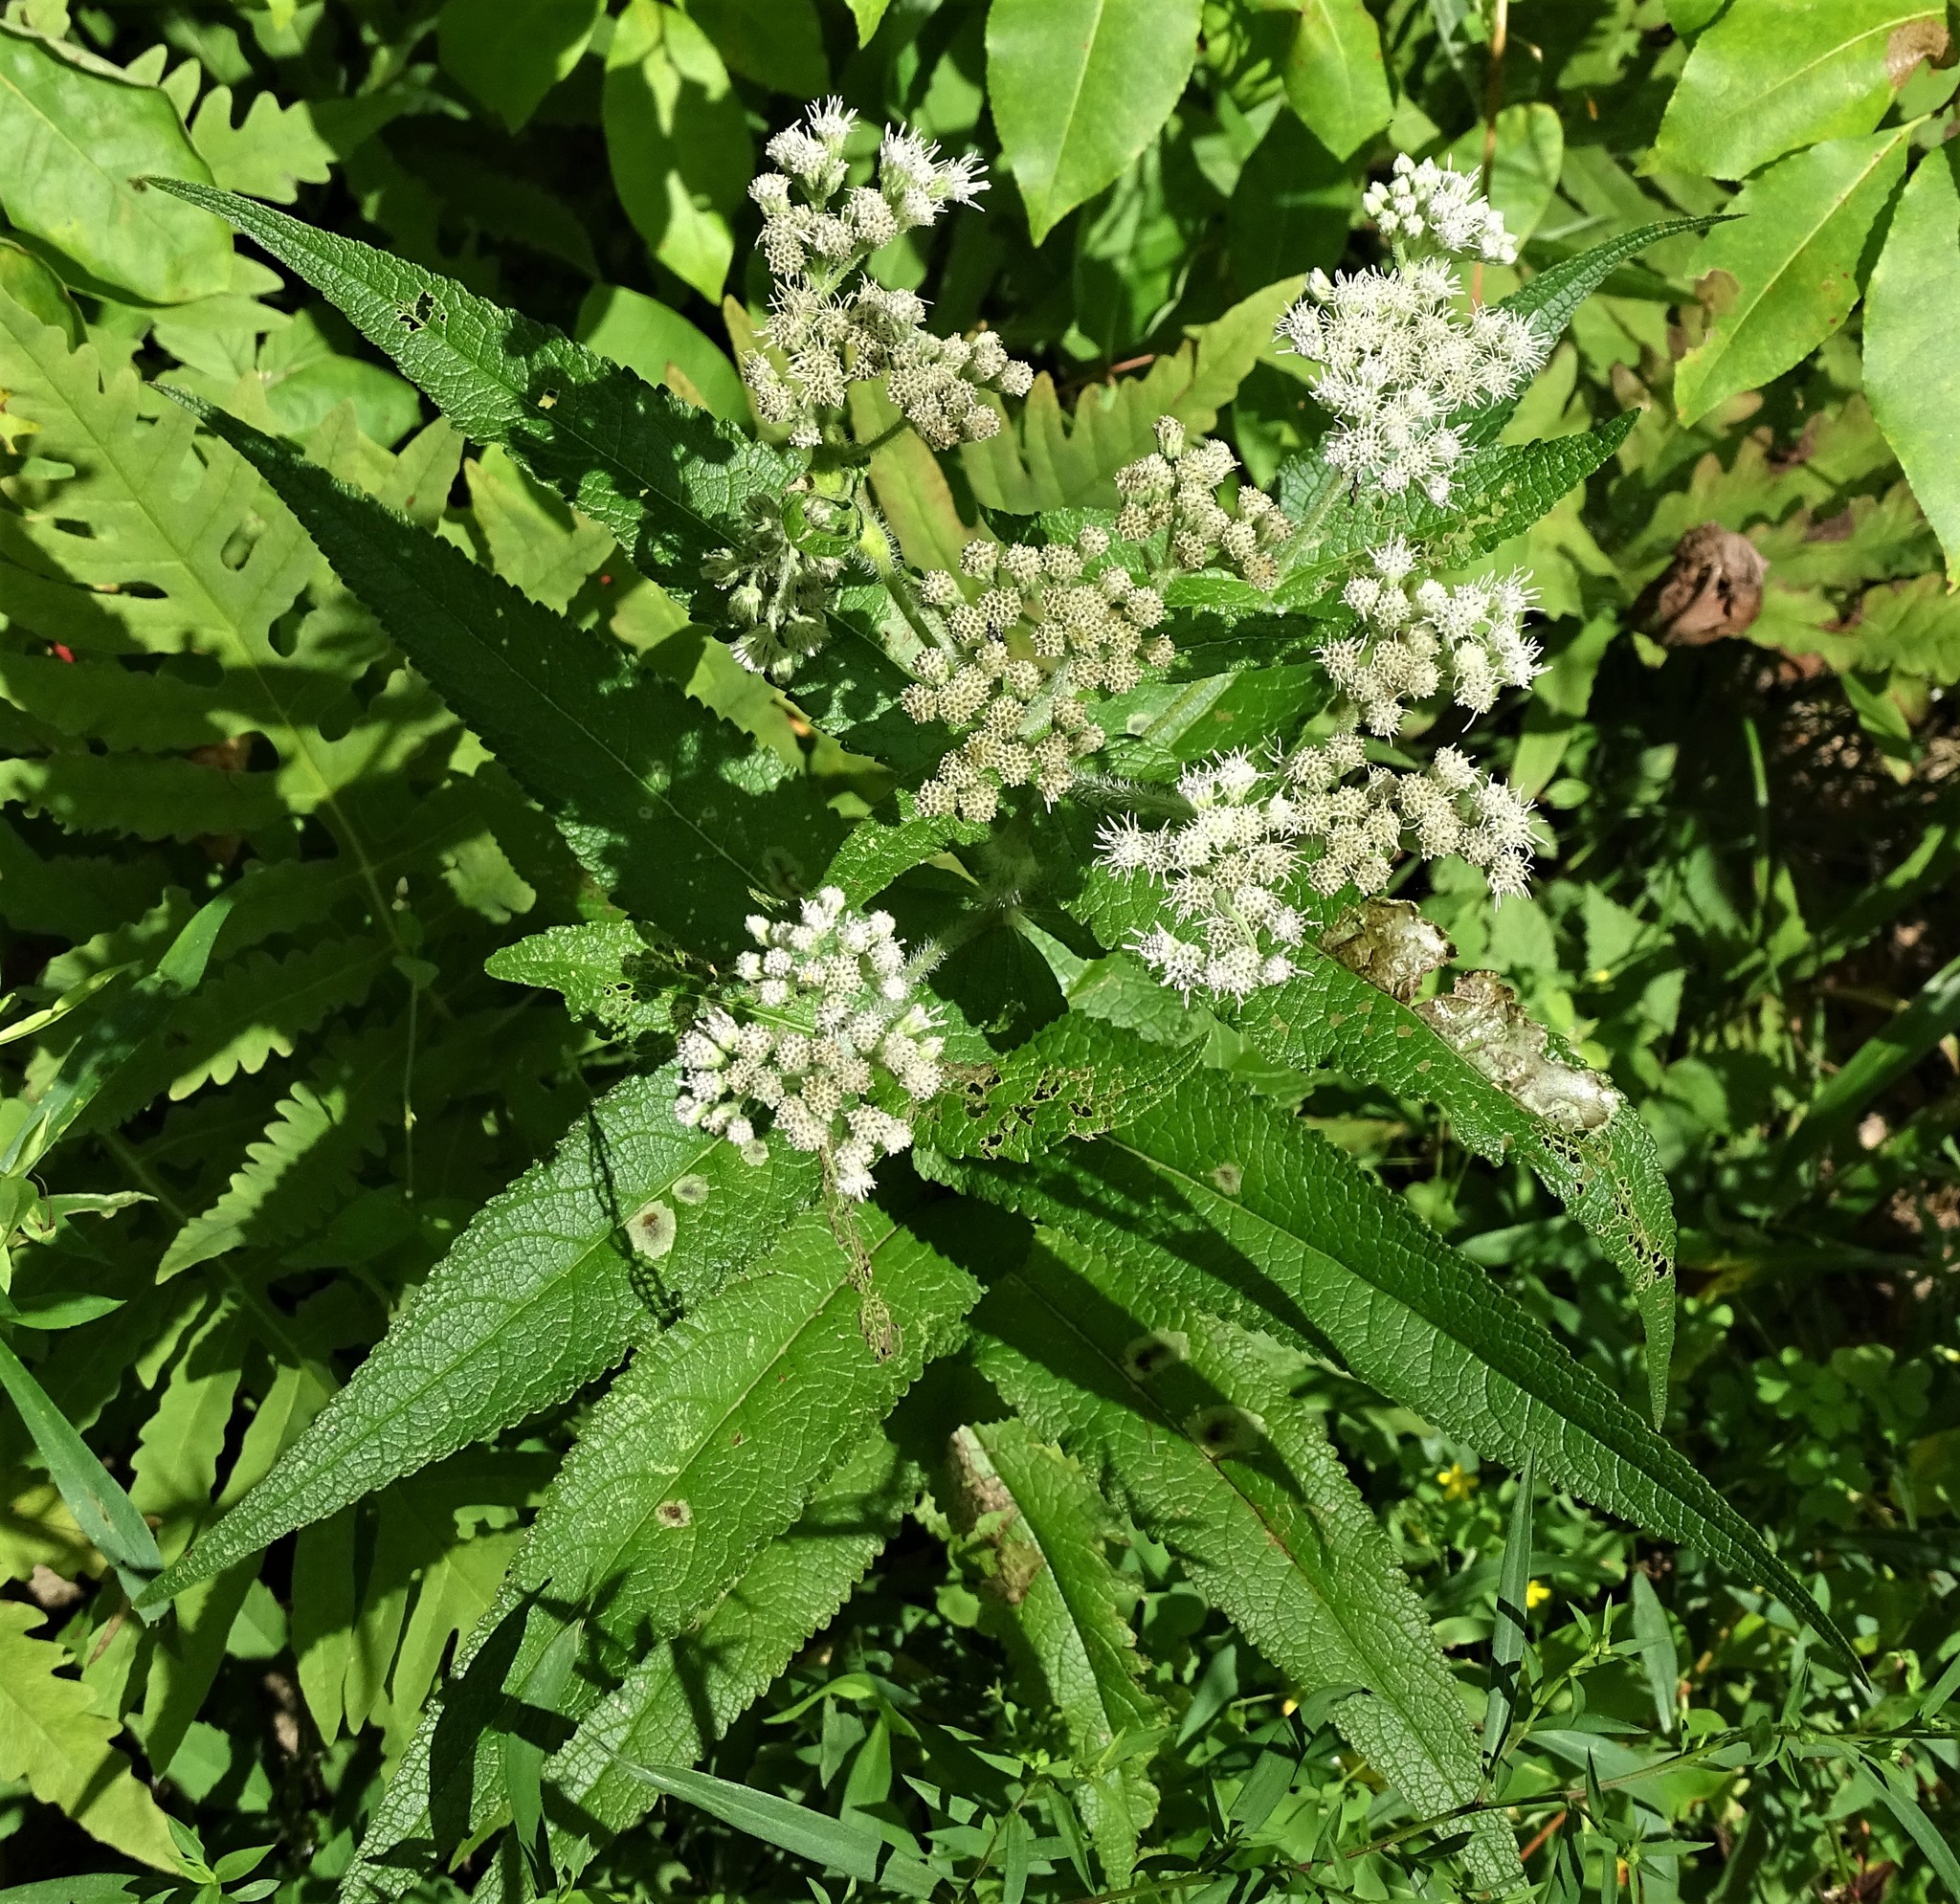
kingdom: Plantae
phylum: Tracheophyta
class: Magnoliopsida
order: Asterales
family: Asteraceae
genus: Eupatorium
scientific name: Eupatorium perfoliatum
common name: Boneset
